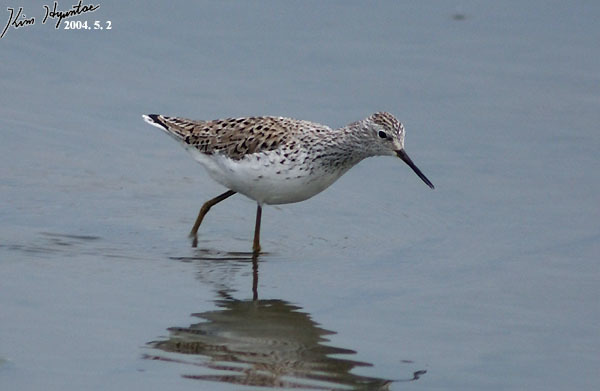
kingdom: Animalia
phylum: Chordata
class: Aves
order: Charadriiformes
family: Scolopacidae
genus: Tringa
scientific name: Tringa stagnatilis
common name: Marsh sandpiper
